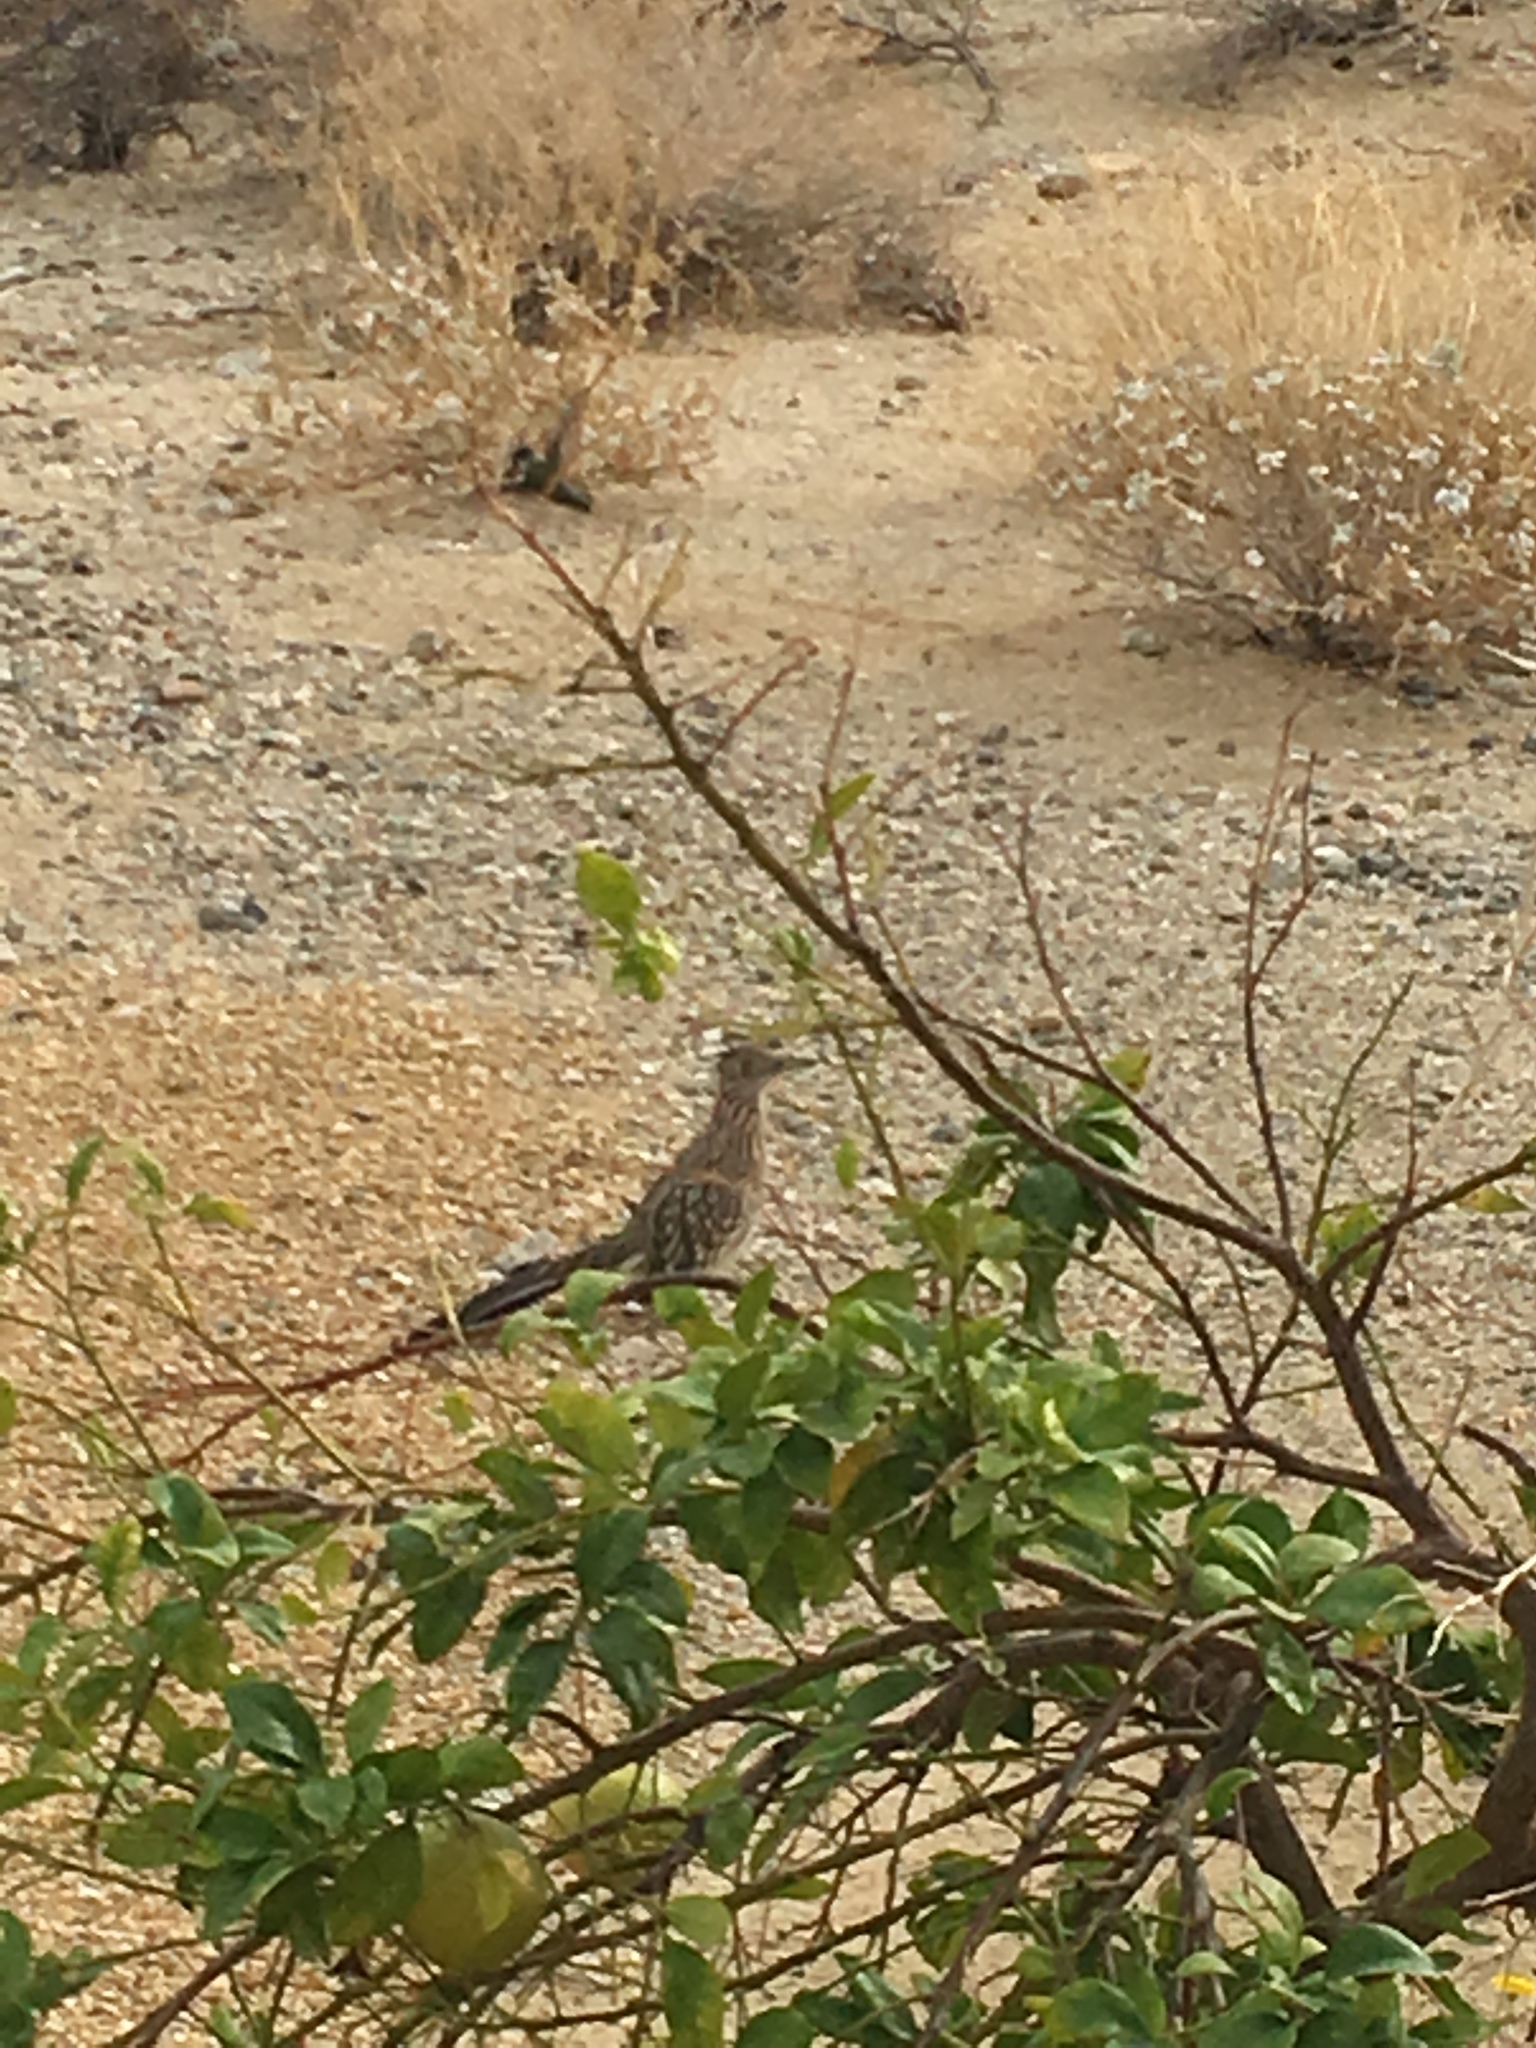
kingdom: Animalia
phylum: Chordata
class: Aves
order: Cuculiformes
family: Cuculidae
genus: Geococcyx
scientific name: Geococcyx californianus
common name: Greater roadrunner
